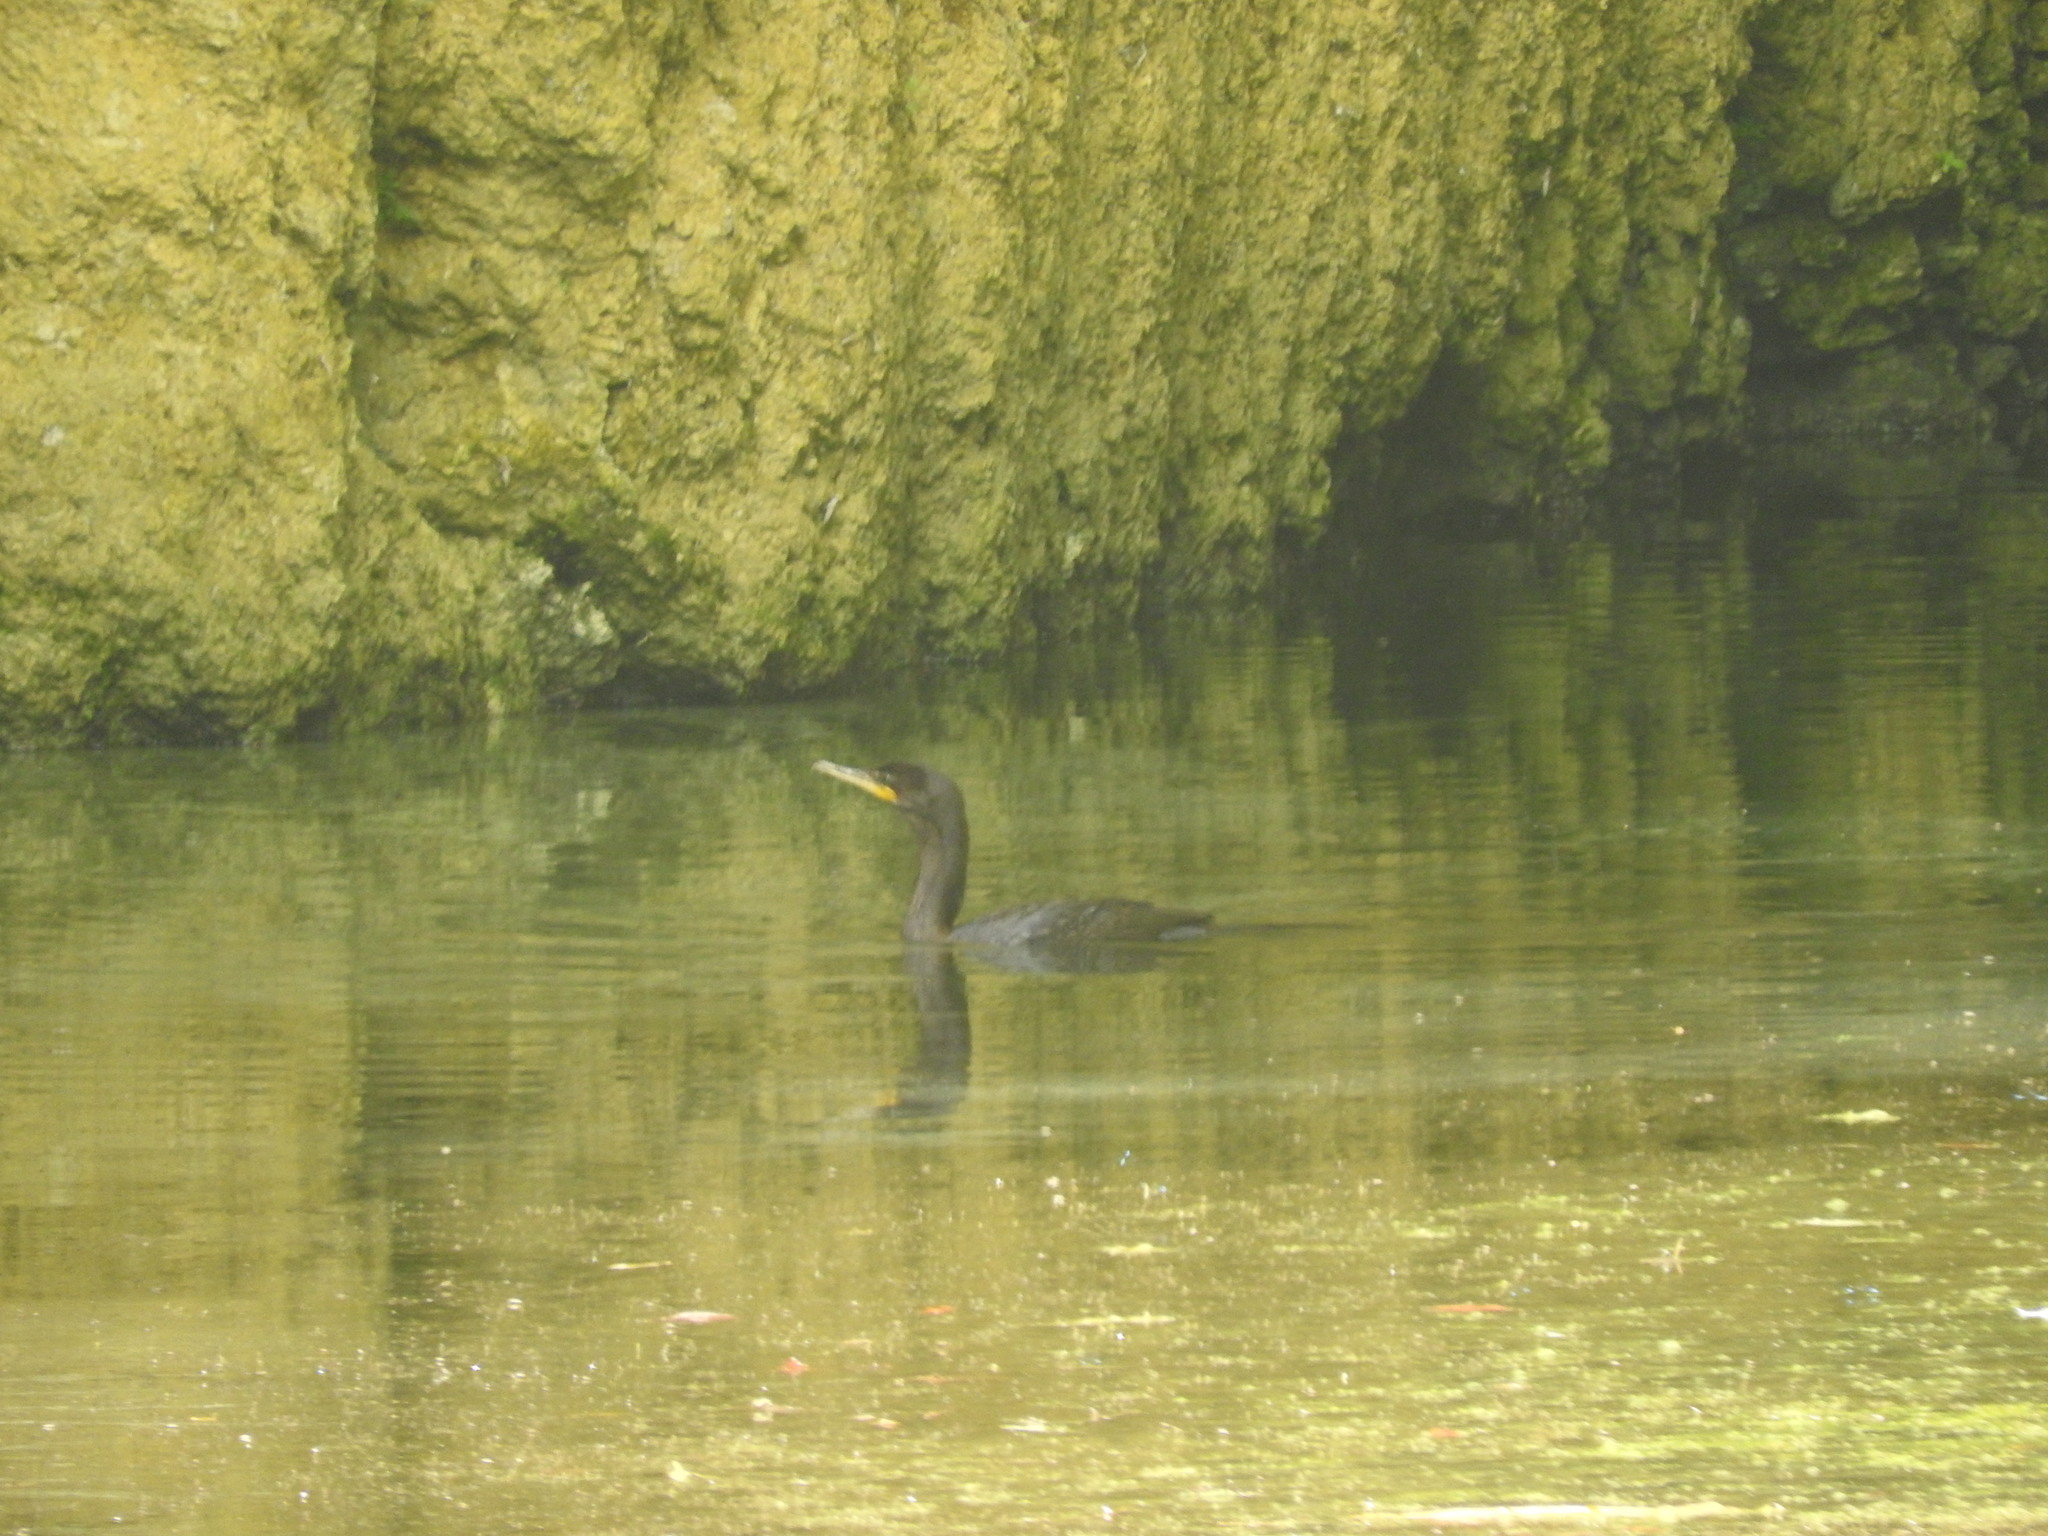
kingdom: Animalia
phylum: Chordata
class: Aves
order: Suliformes
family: Phalacrocoracidae
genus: Phalacrocorax
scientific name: Phalacrocorax brasilianus
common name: Neotropic cormorant
